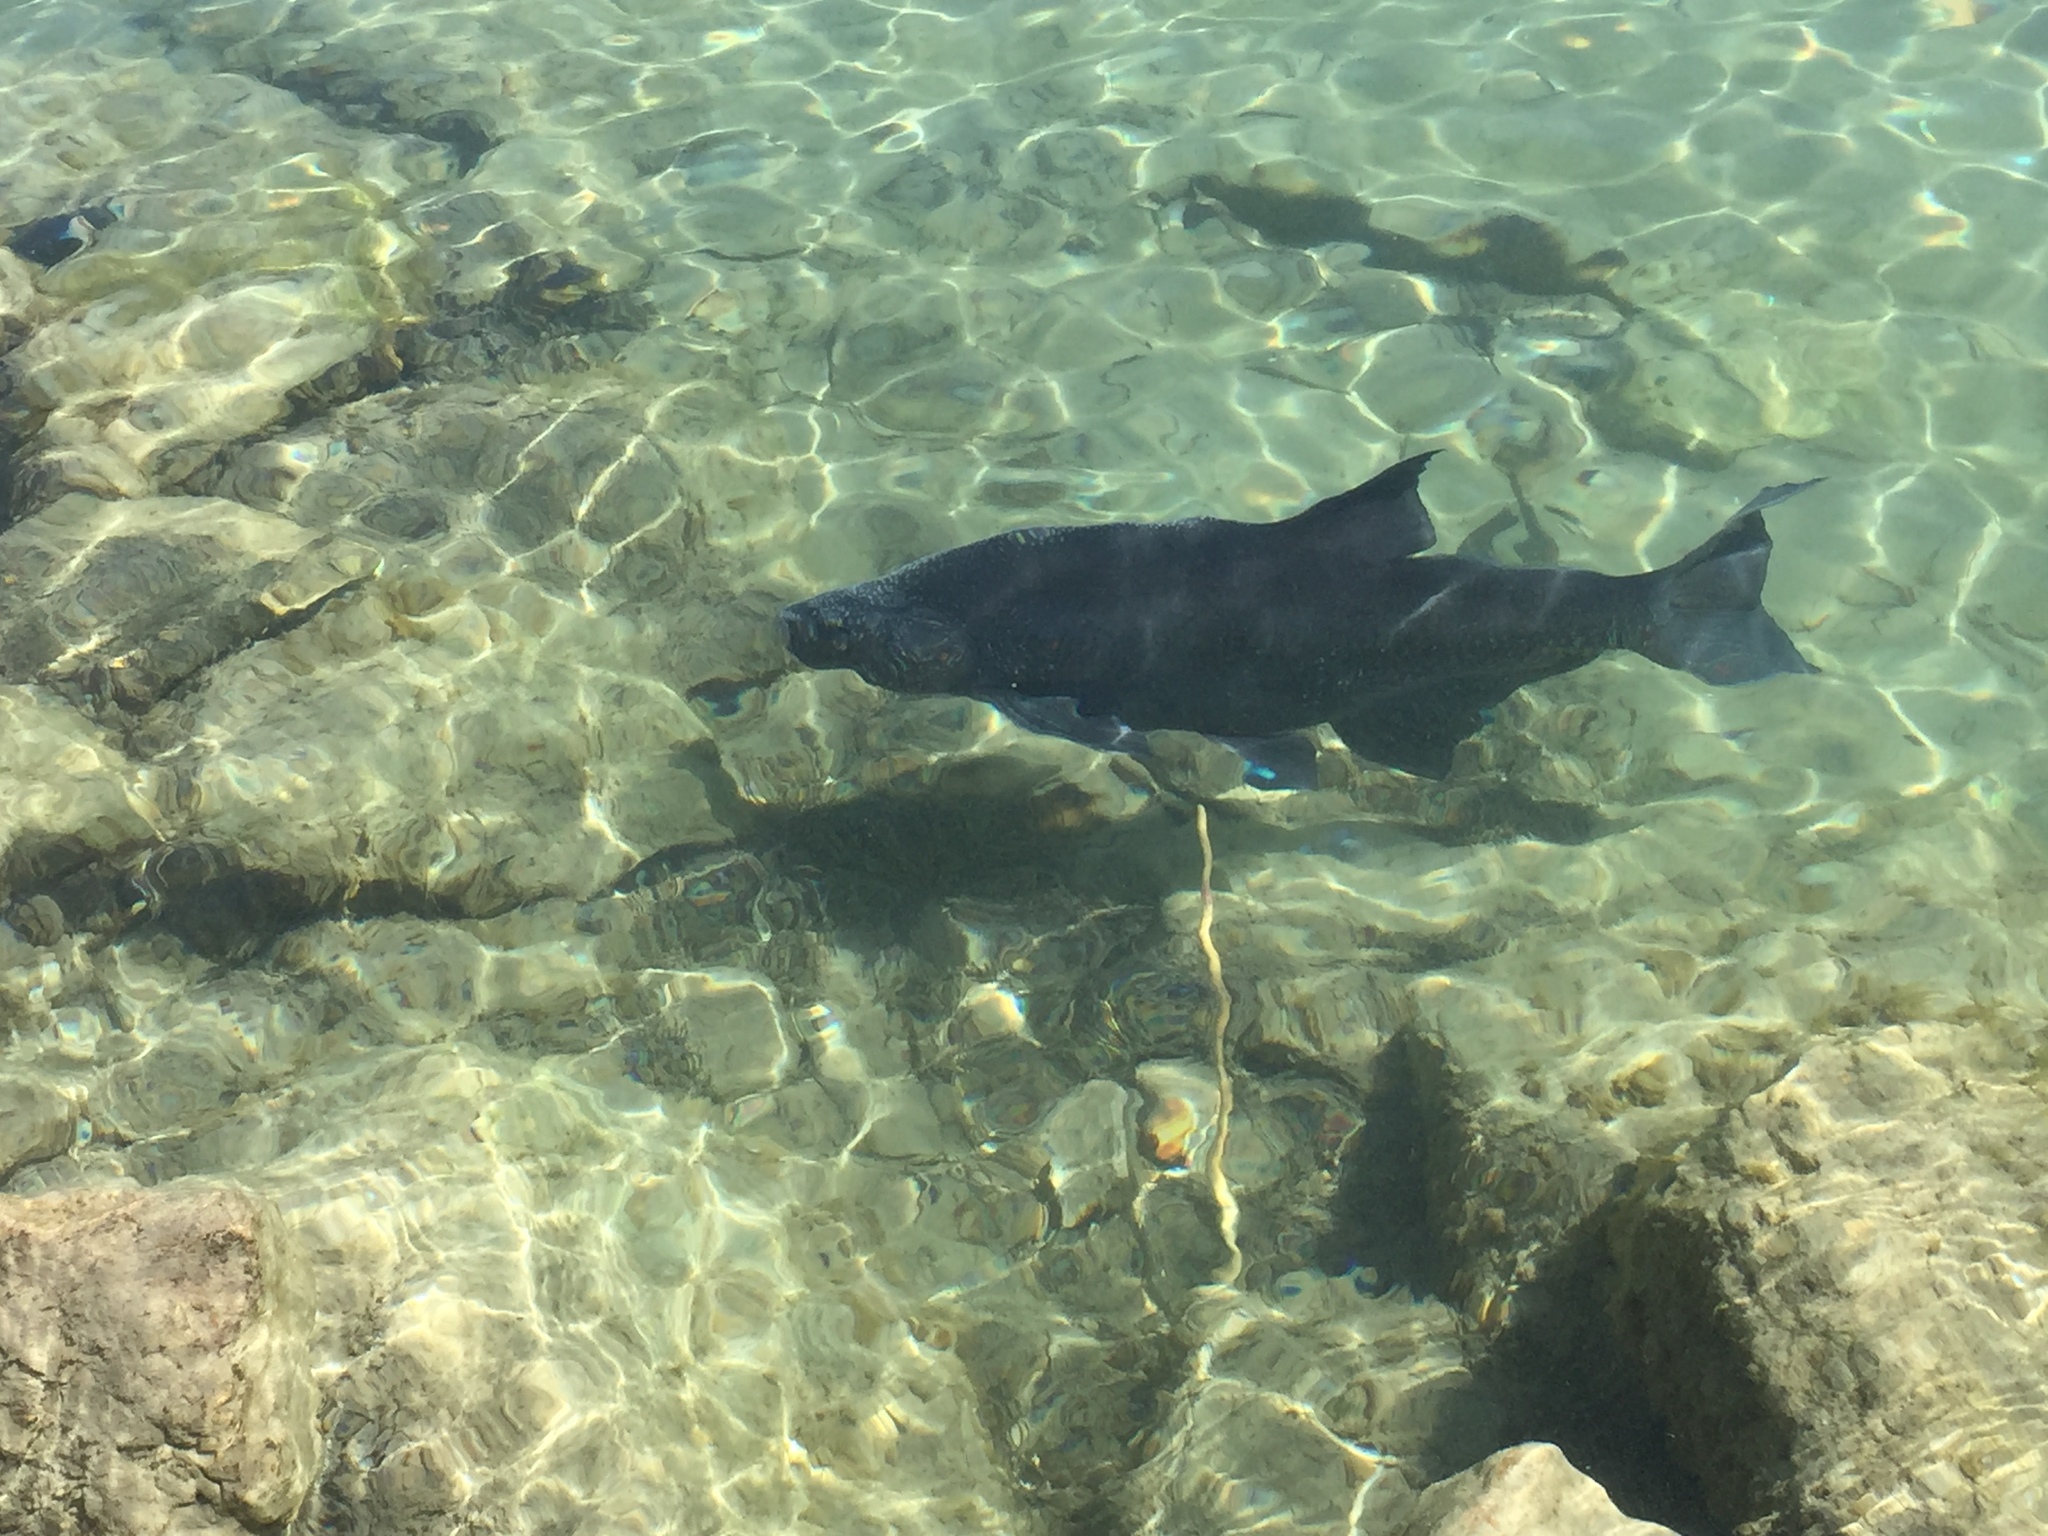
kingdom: Animalia
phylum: Chordata
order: Cypriniformes
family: Cyprinidae
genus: Abramis
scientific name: Abramis brama
